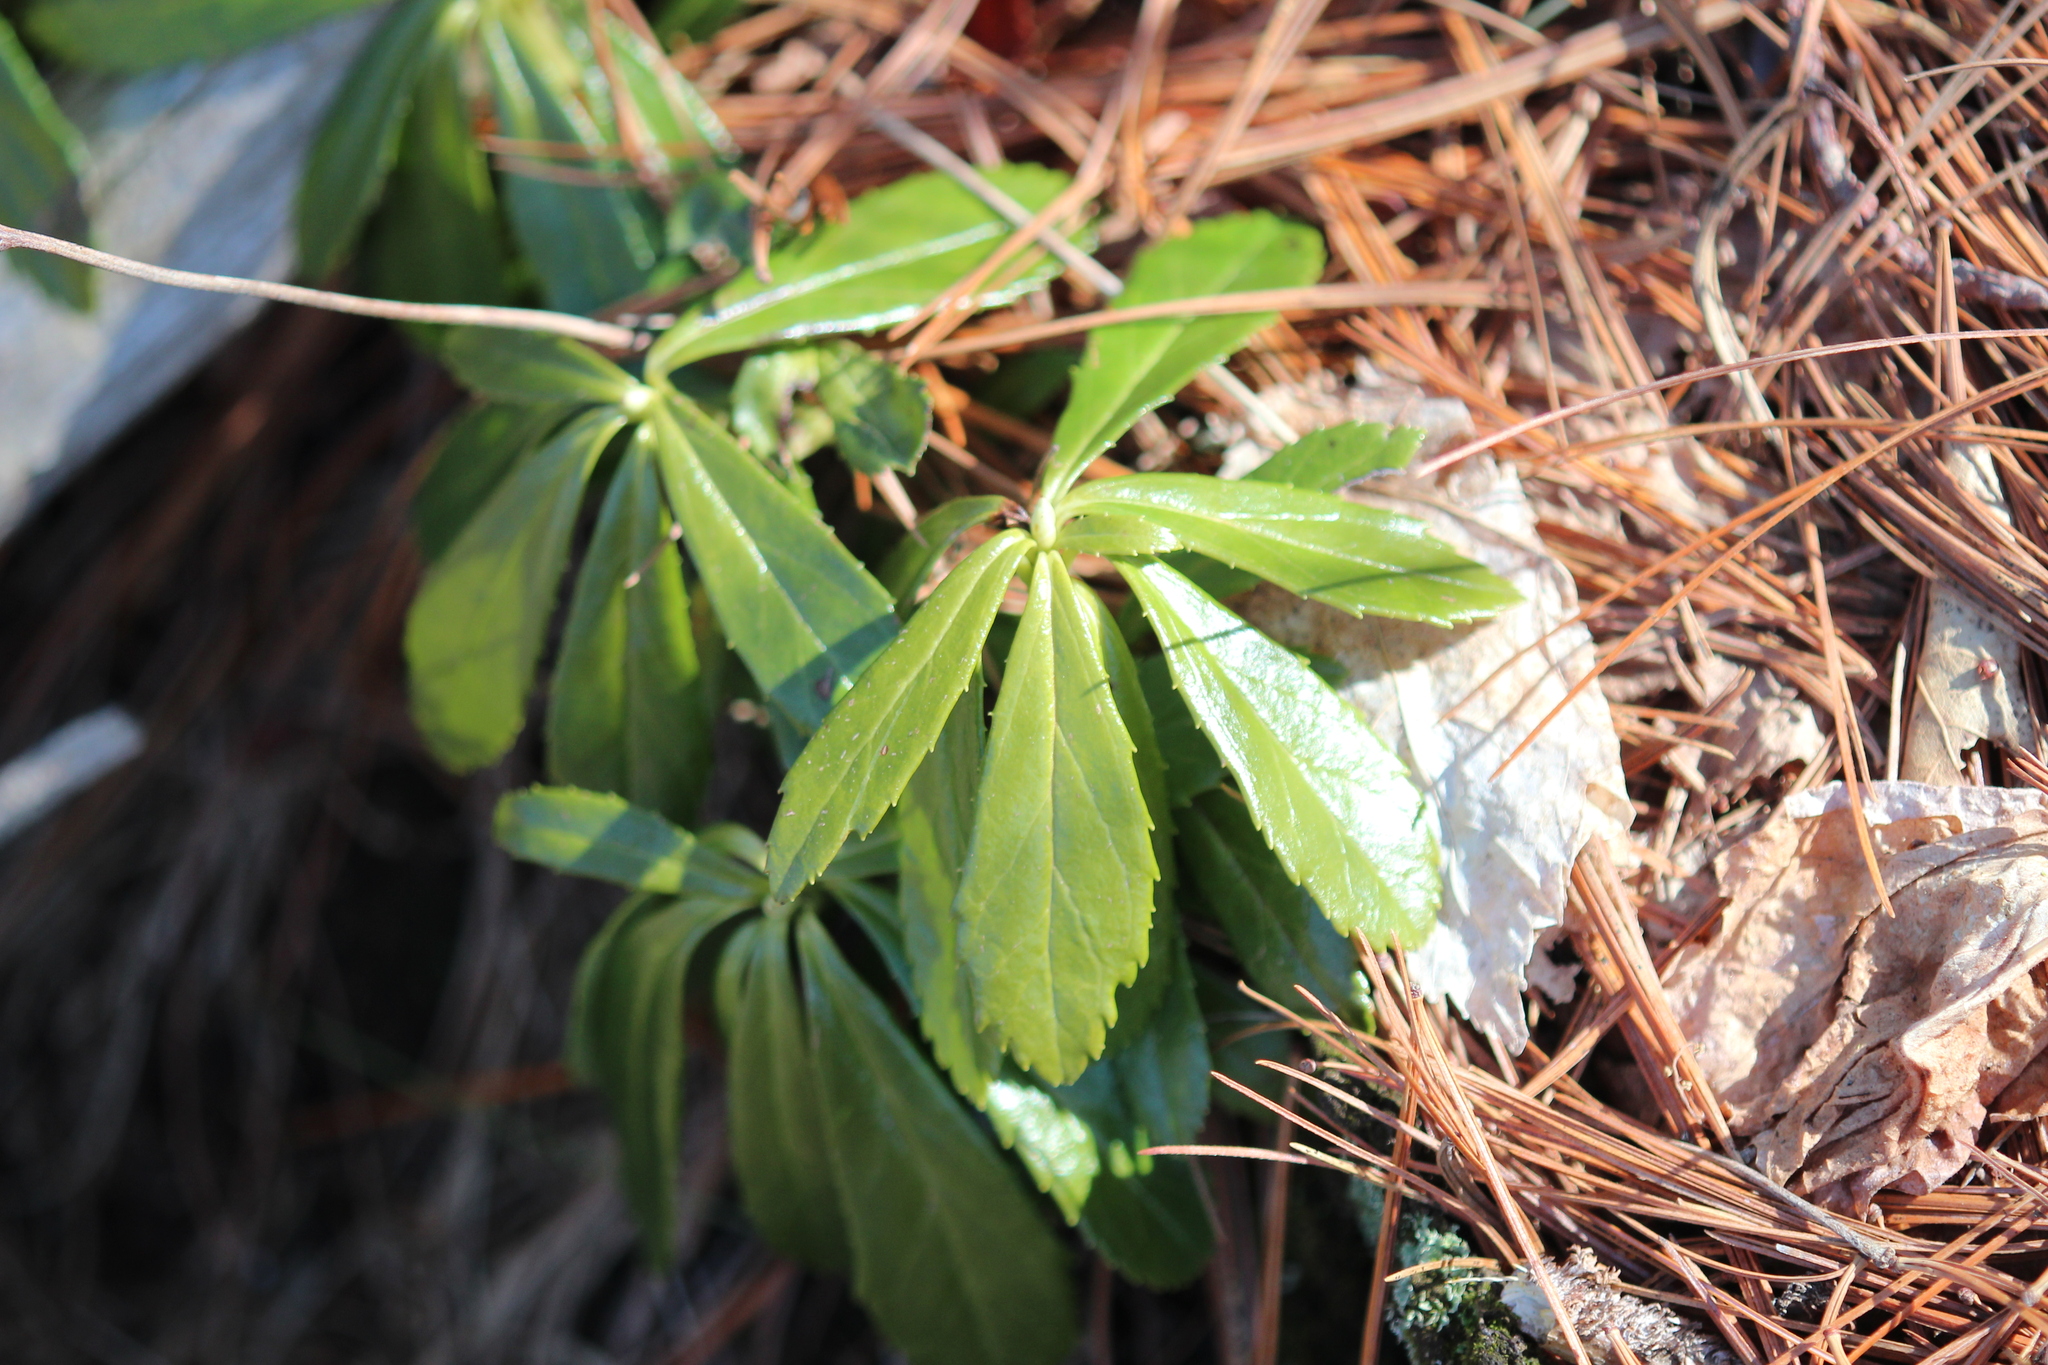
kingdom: Plantae
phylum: Tracheophyta
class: Magnoliopsida
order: Ericales
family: Ericaceae
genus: Chimaphila
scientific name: Chimaphila umbellata
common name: Pipsissewa
